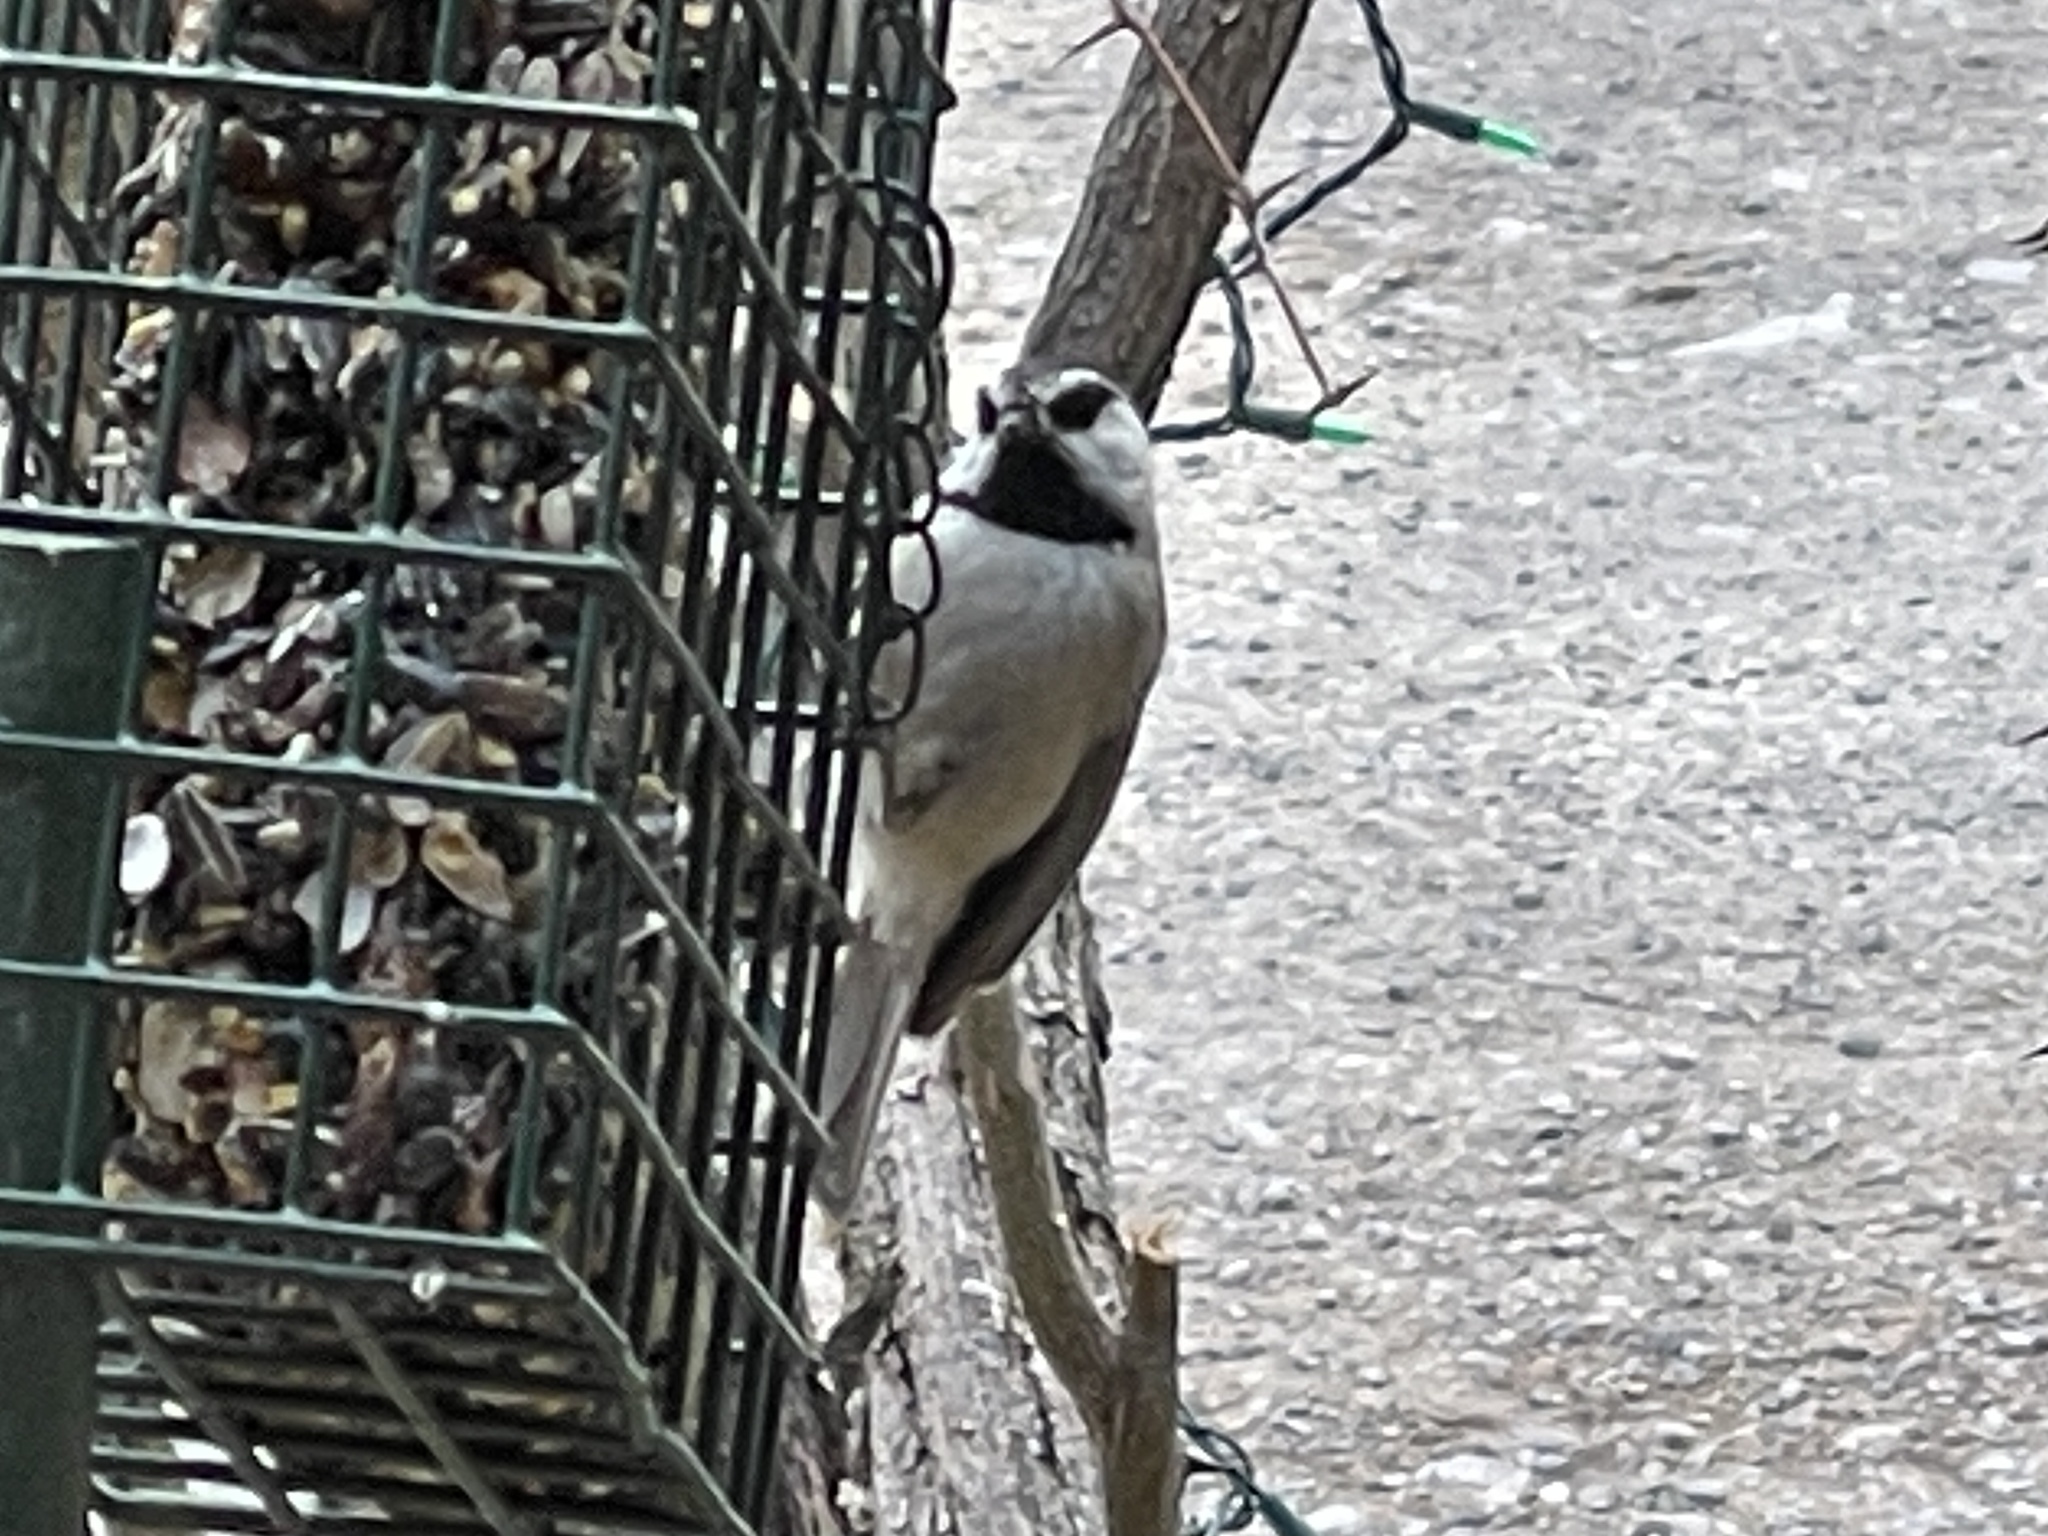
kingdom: Animalia
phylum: Chordata
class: Aves
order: Passeriformes
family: Paridae
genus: Poecile
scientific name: Poecile gambeli
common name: Mountain chickadee
